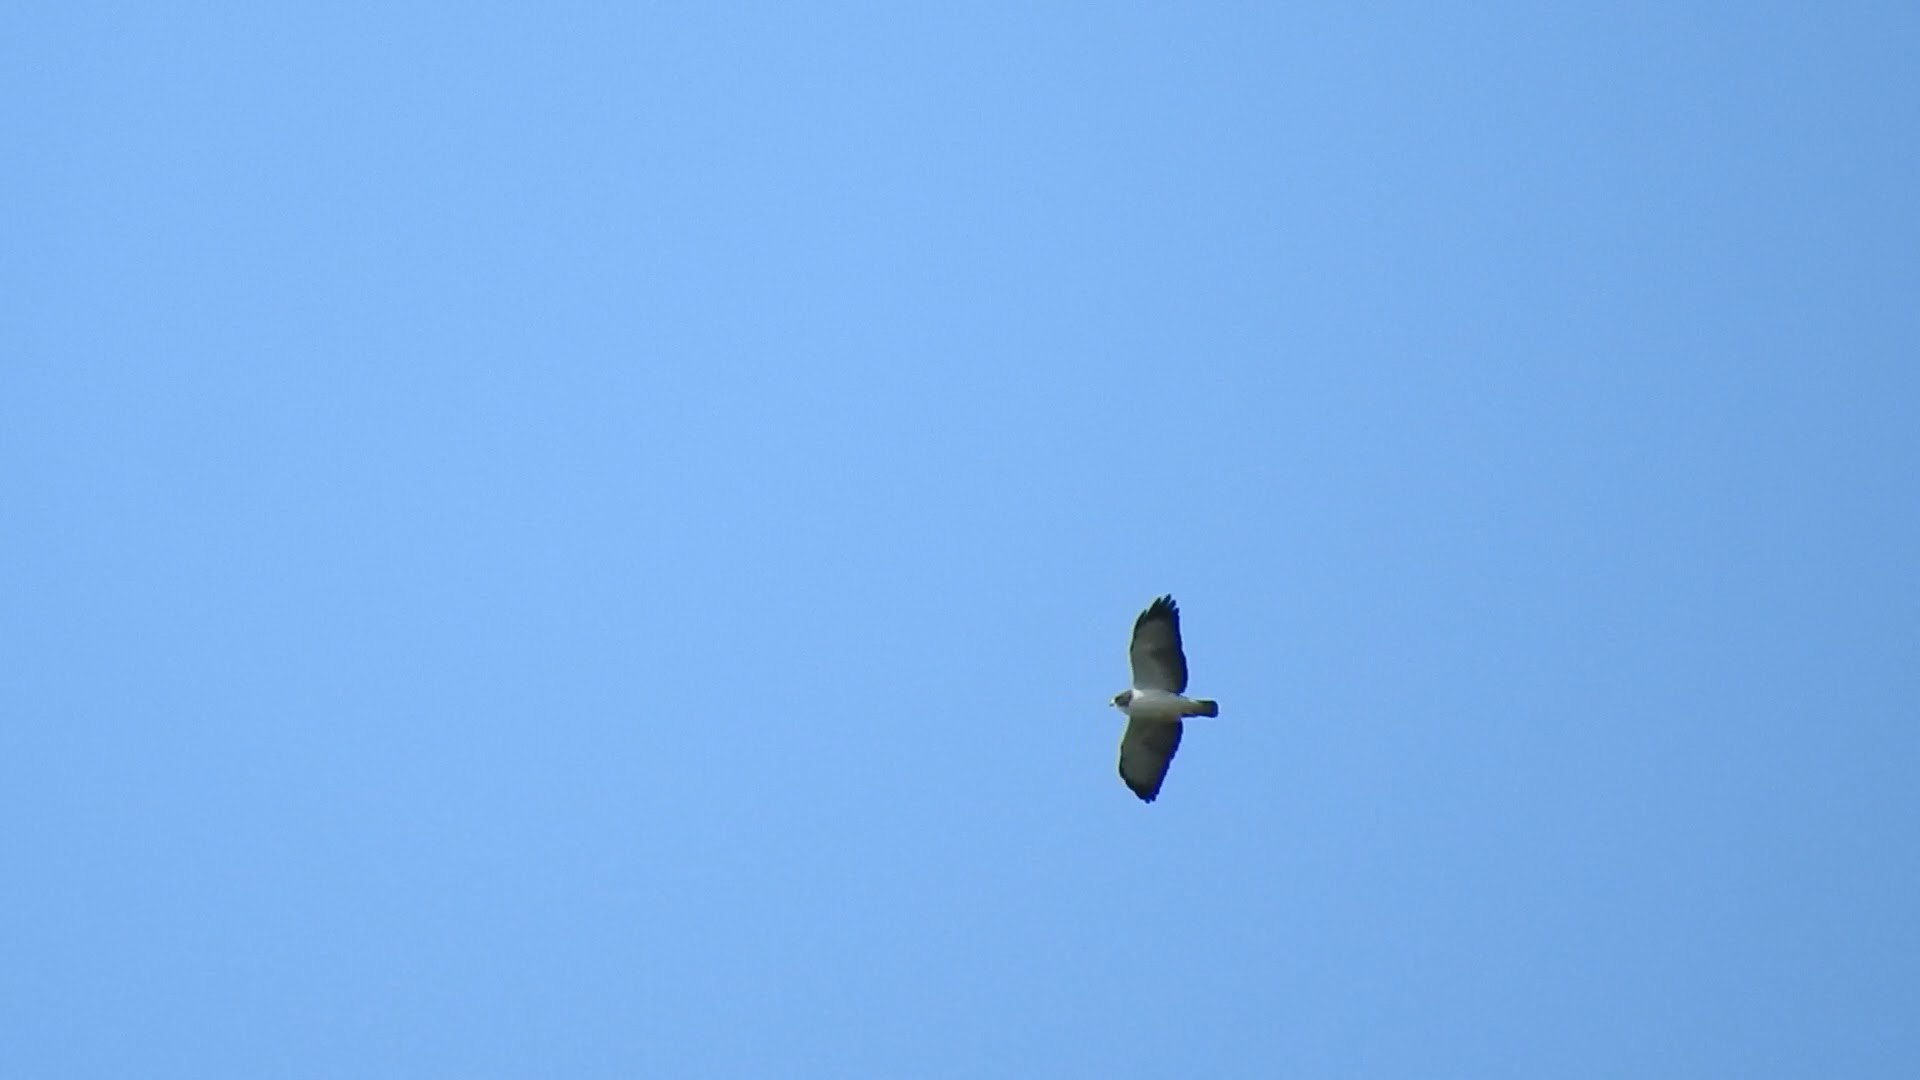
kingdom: Animalia
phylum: Chordata
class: Aves
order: Accipitriformes
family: Accipitridae
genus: Buteo
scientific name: Buteo brachyurus
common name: Short-tailed hawk
